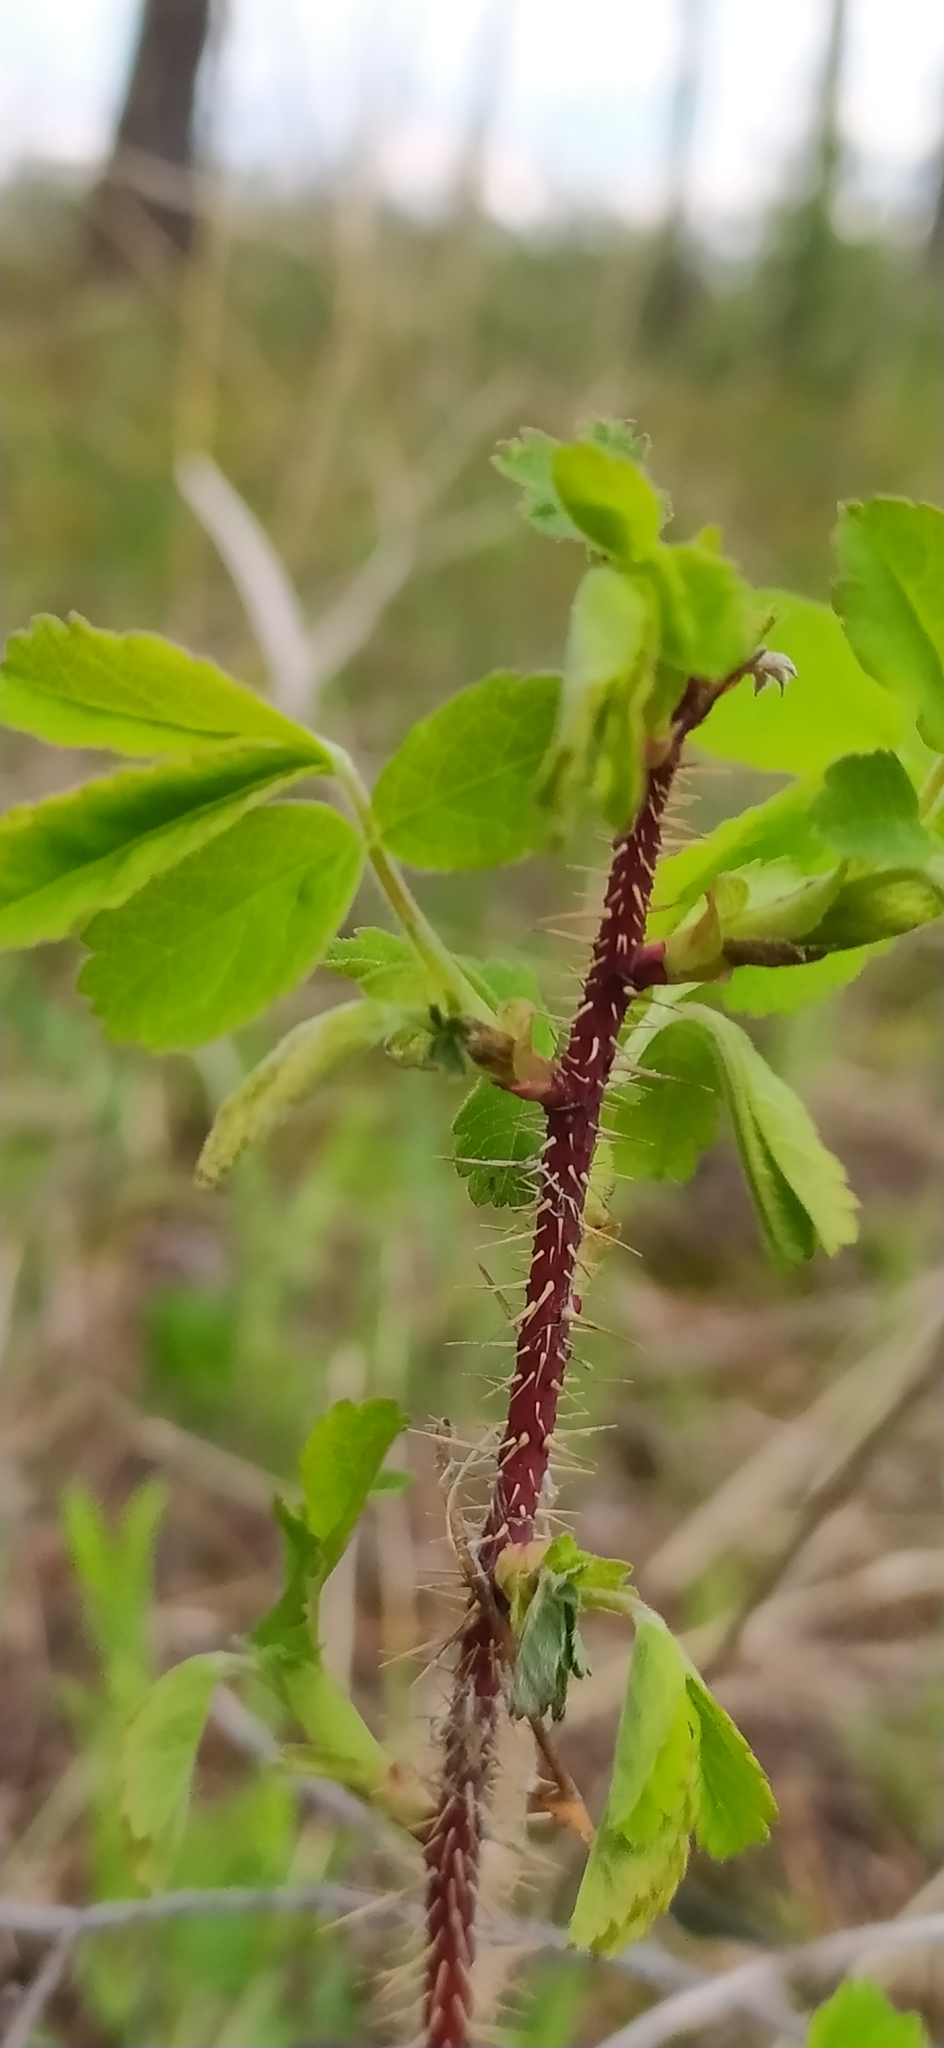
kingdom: Plantae
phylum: Tracheophyta
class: Magnoliopsida
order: Rosales
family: Rosaceae
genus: Rosa
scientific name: Rosa acicularis
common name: Prickly rose
